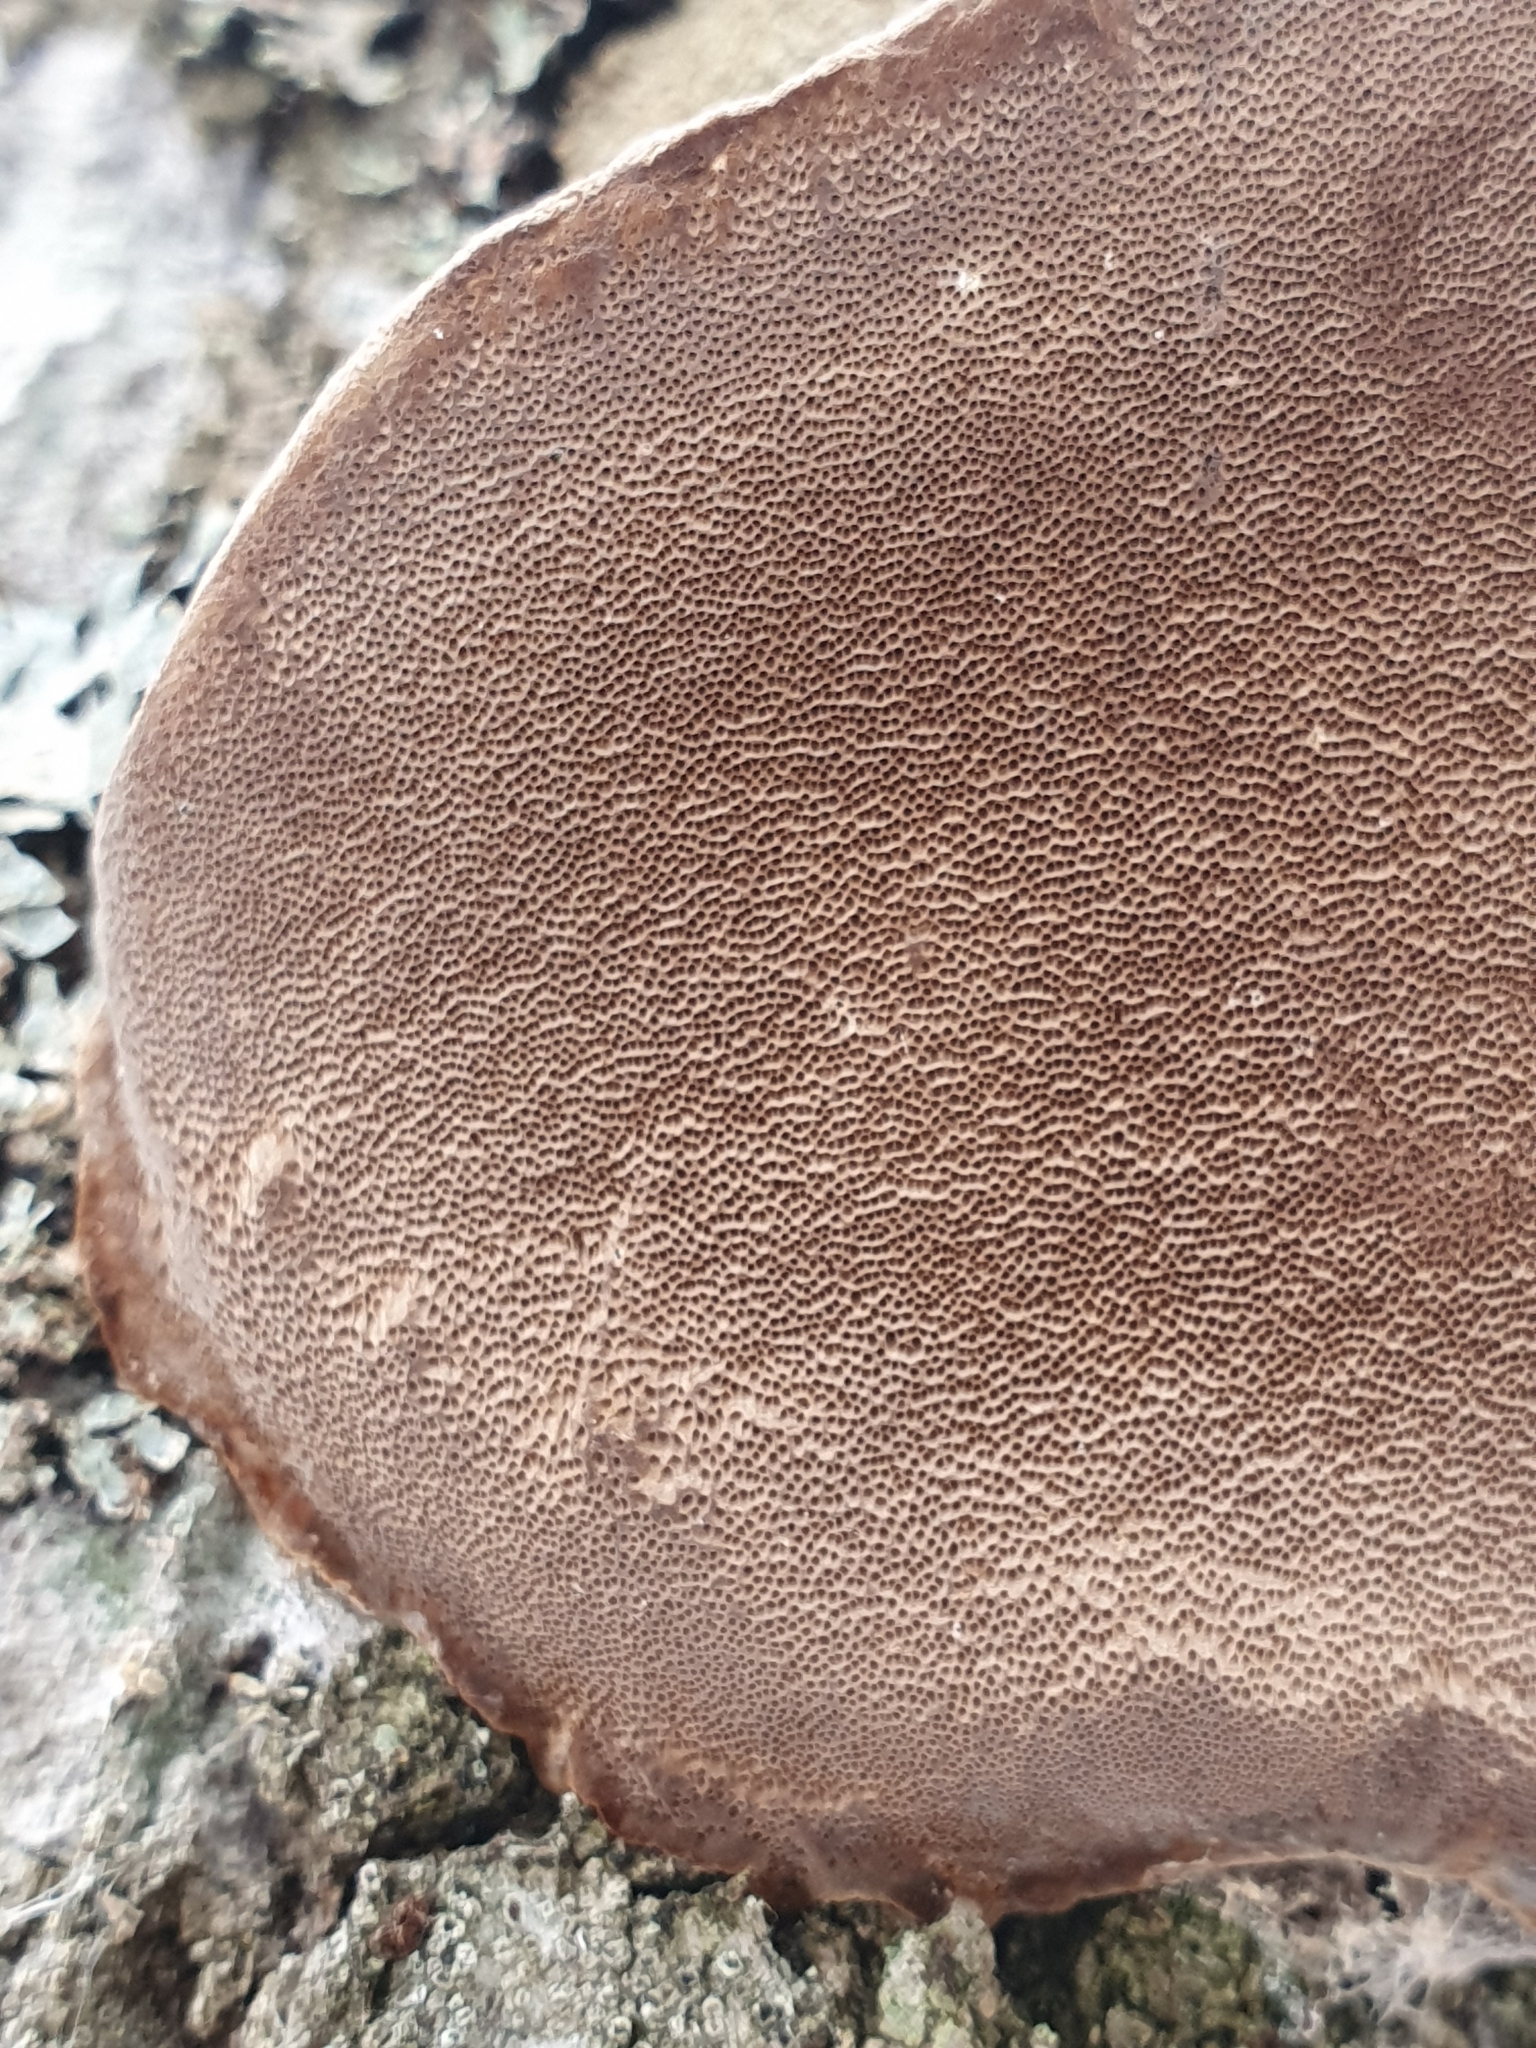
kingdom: Fungi
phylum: Basidiomycota
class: Agaricomycetes
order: Hymenochaetales
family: Hymenochaetaceae
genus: Phellinus
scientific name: Phellinus tremulae
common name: Aspen bracket
